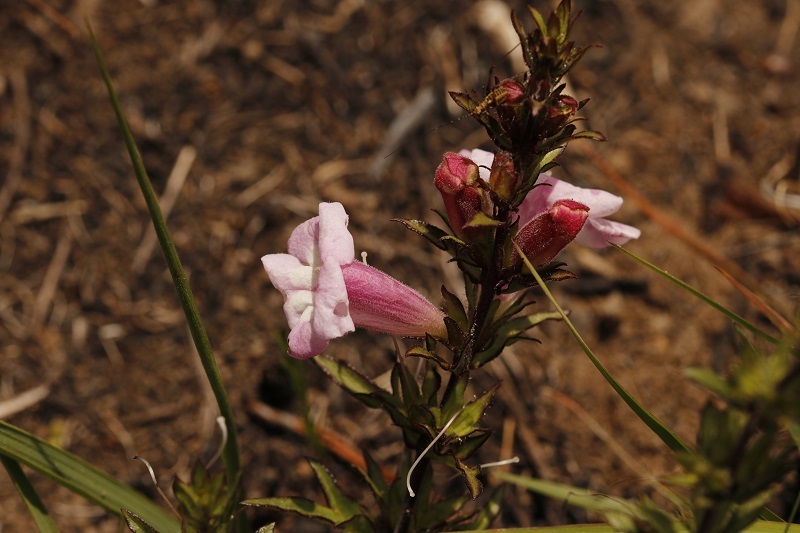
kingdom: Plantae
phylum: Tracheophyta
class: Magnoliopsida
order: Lamiales
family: Orobanchaceae
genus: Graderia
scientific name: Graderia scabra
